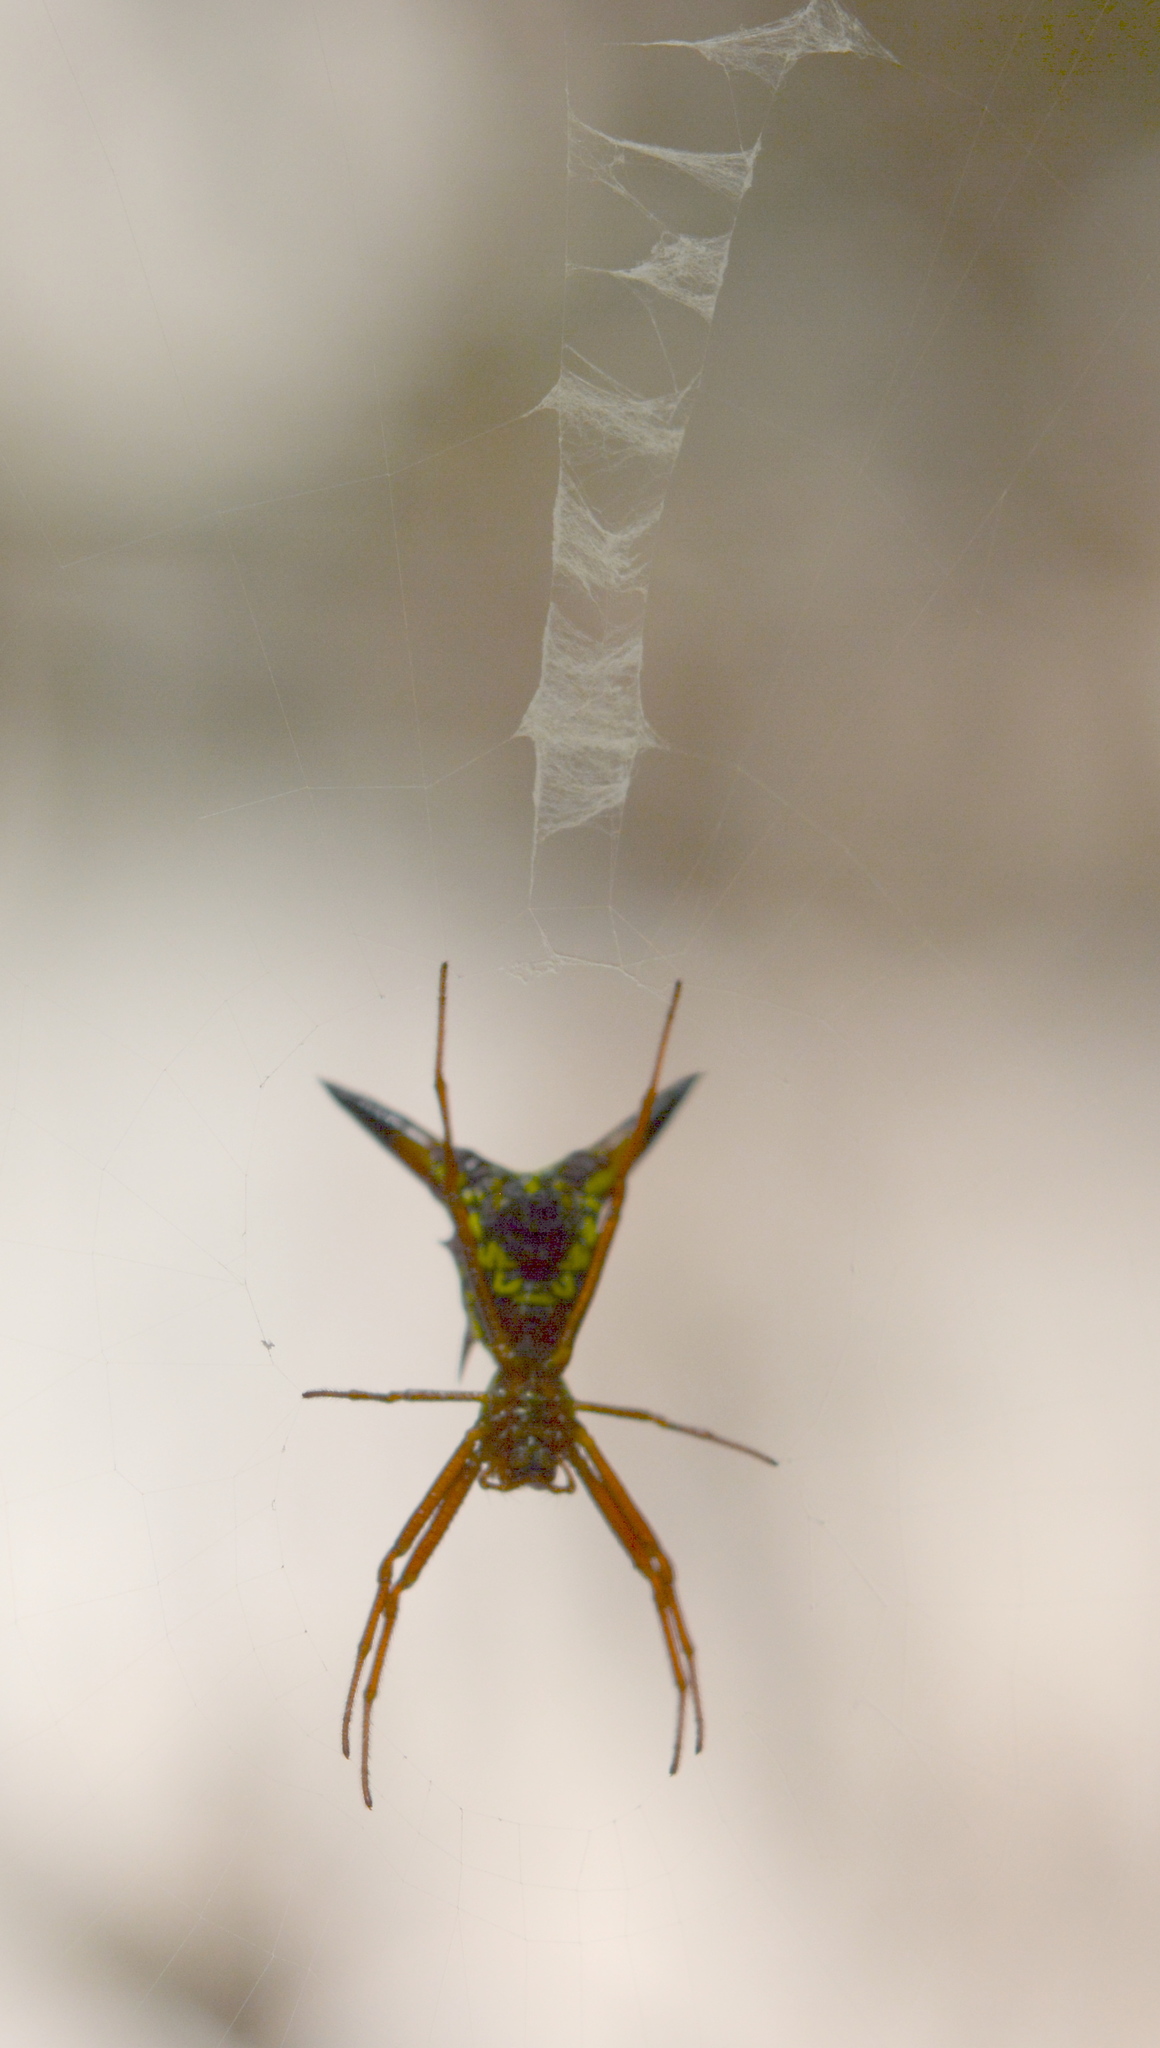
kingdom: Animalia
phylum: Arthropoda
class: Arachnida
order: Araneae
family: Araneidae
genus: Micrathena
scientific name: Micrathena sagittata
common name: Orb weavers
